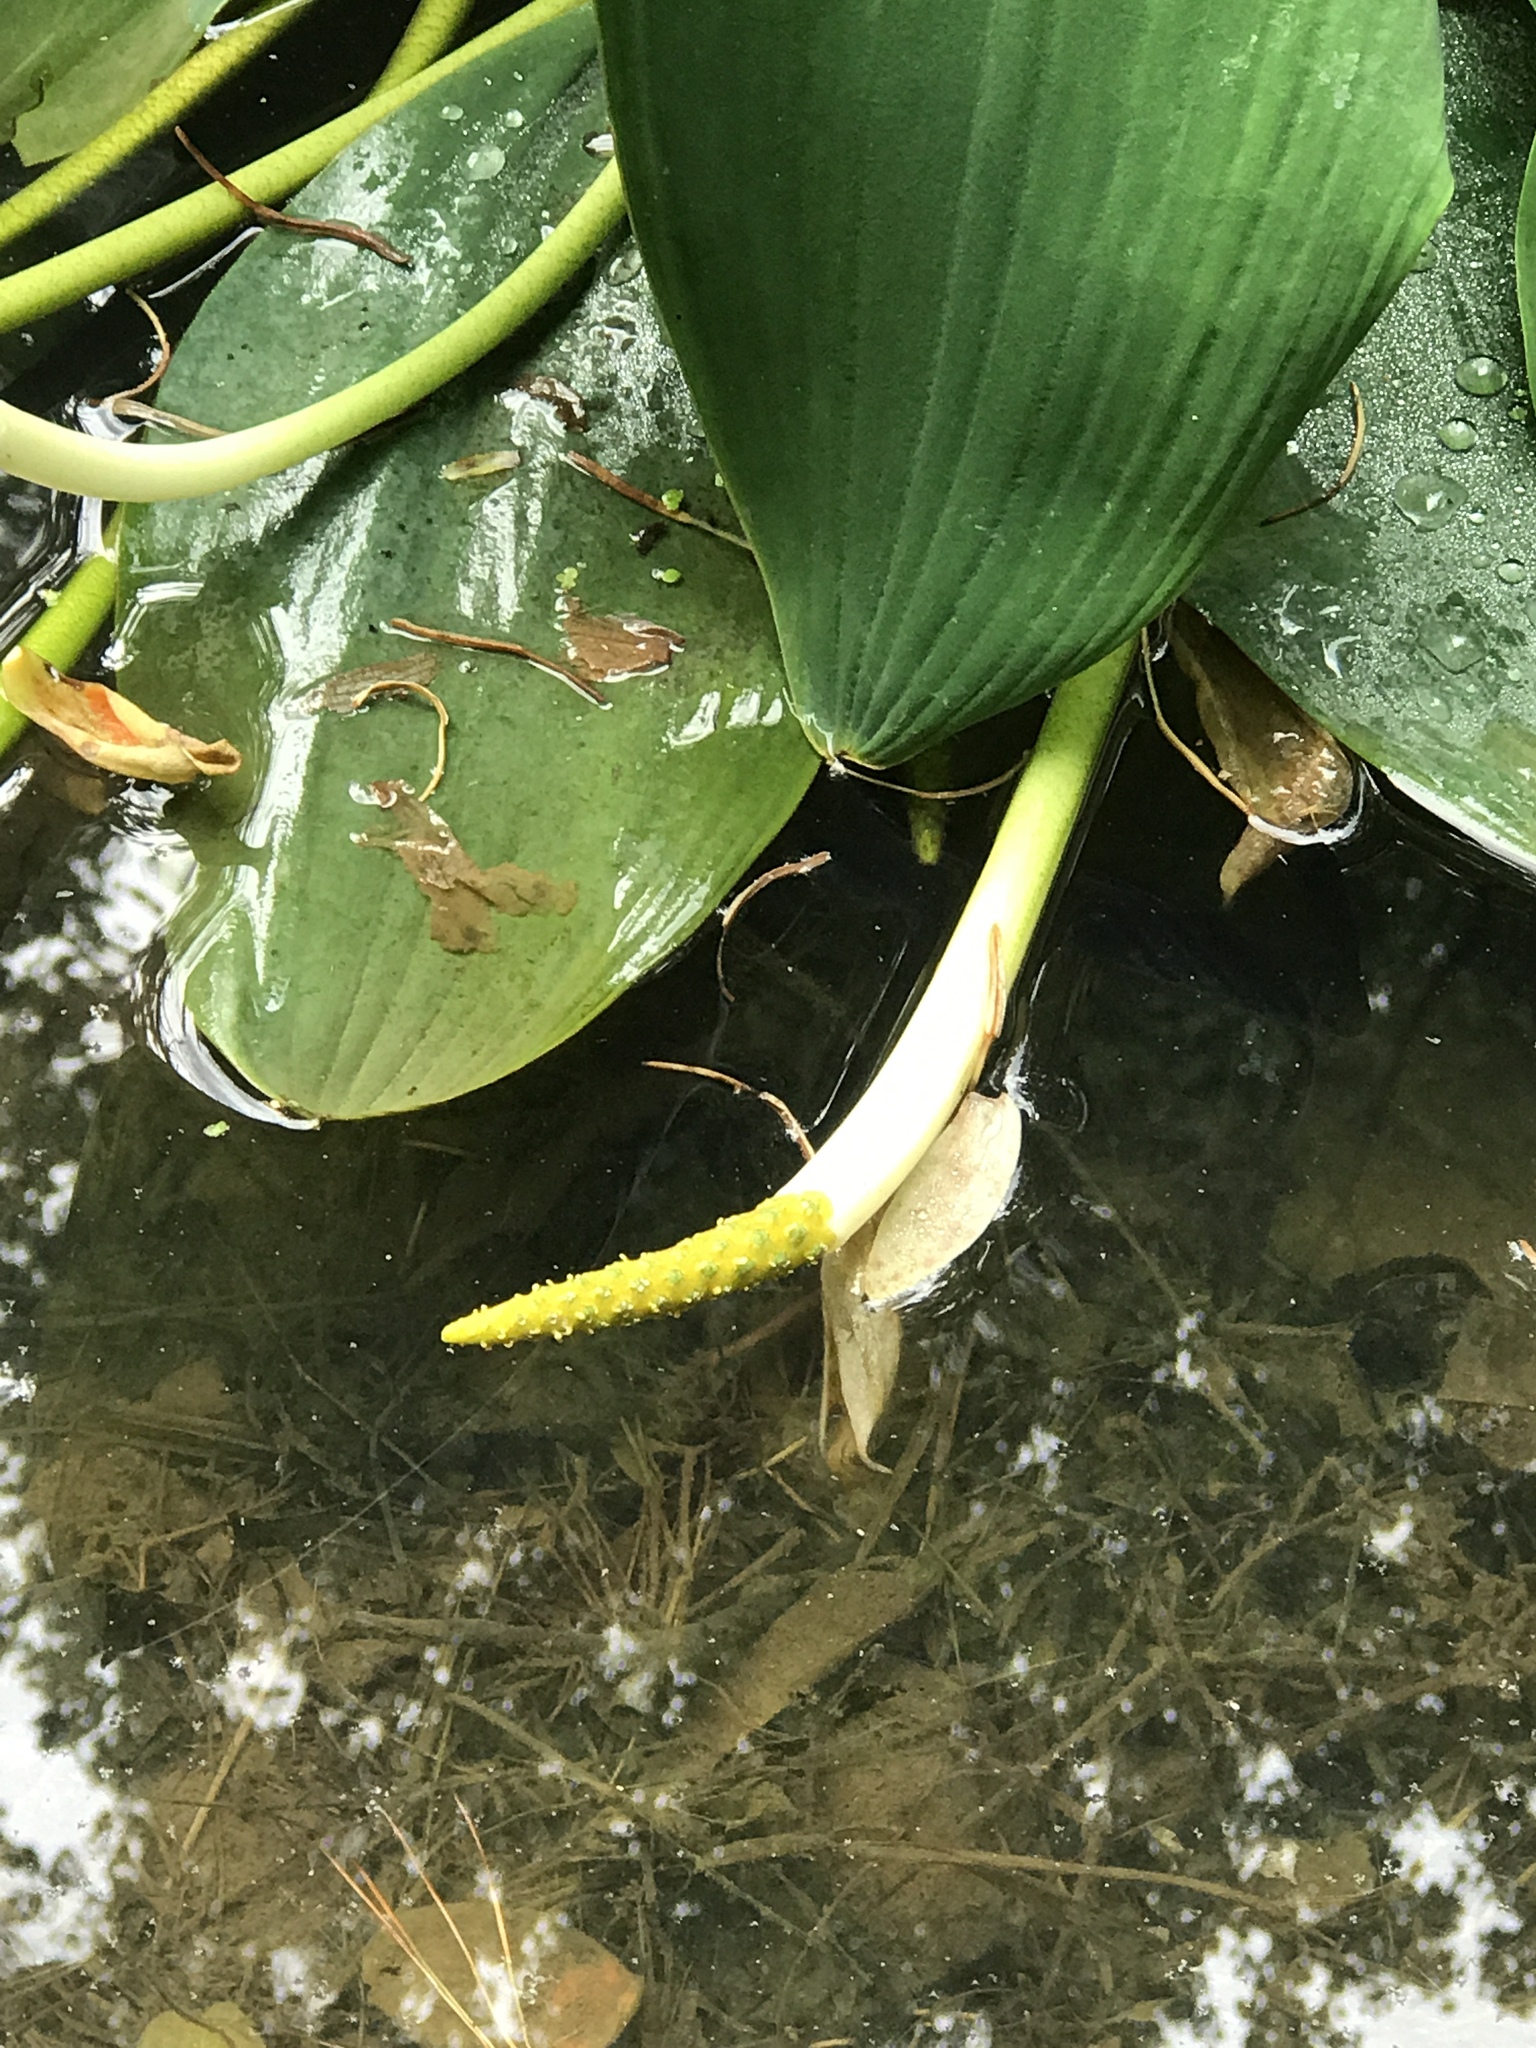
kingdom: Plantae
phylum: Tracheophyta
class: Liliopsida
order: Alismatales
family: Araceae
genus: Orontium
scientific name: Orontium aquaticum
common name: Golden-club
